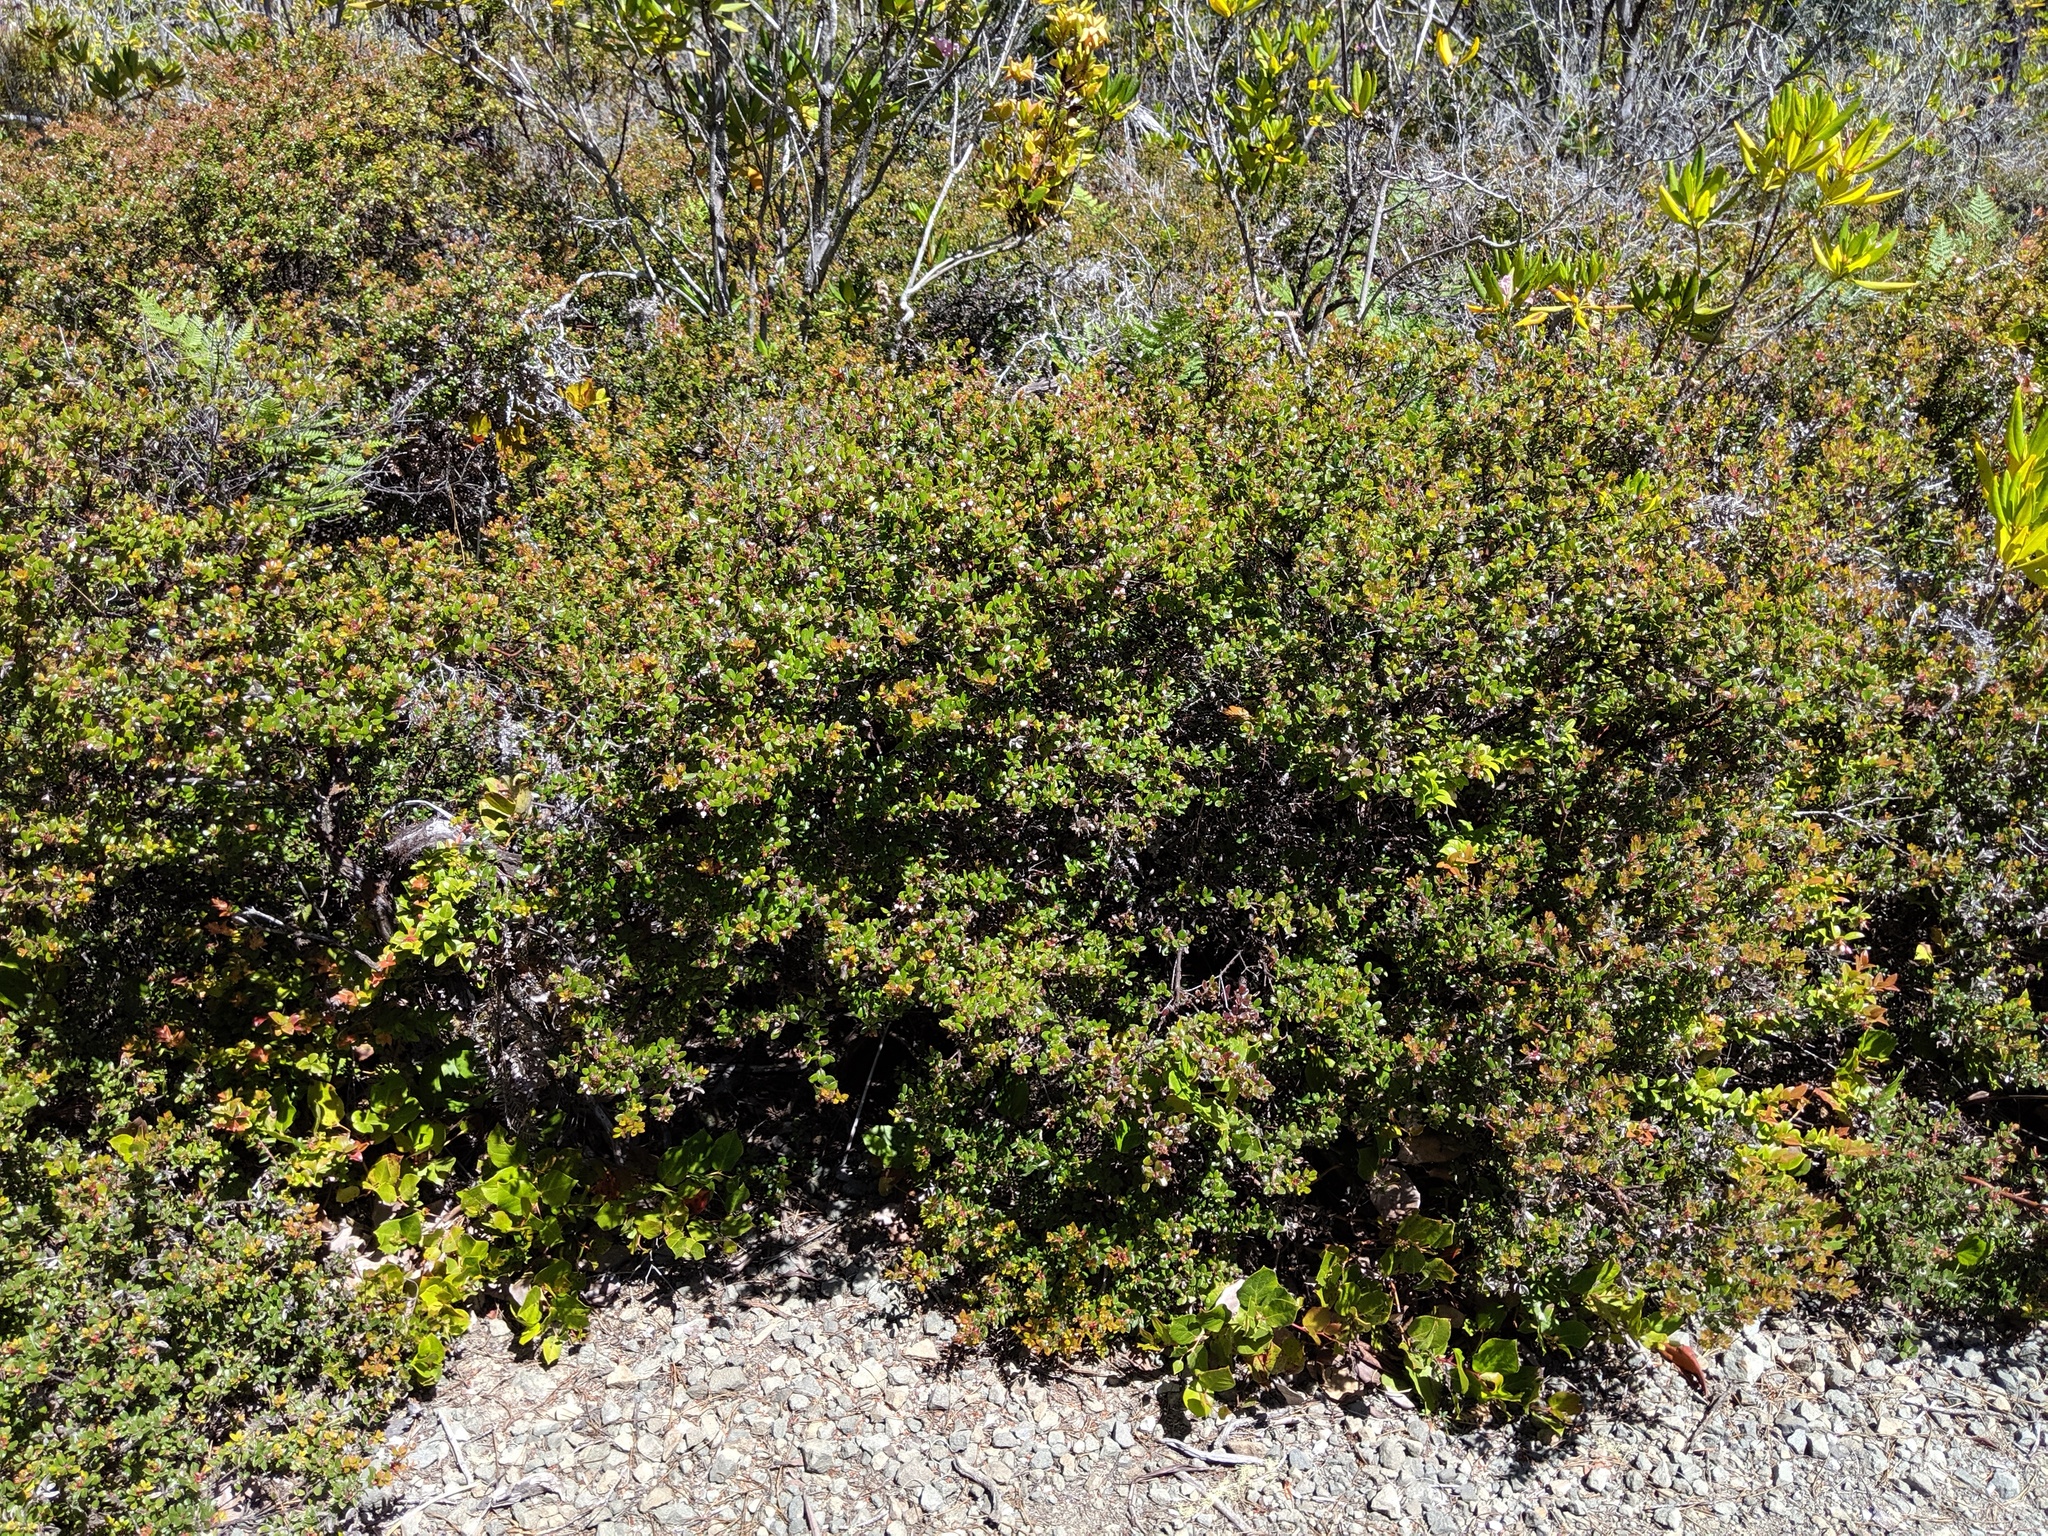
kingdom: Plantae
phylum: Tracheophyta
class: Magnoliopsida
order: Ericales
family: Ericaceae
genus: Arctostaphylos
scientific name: Arctostaphylos nummularia
